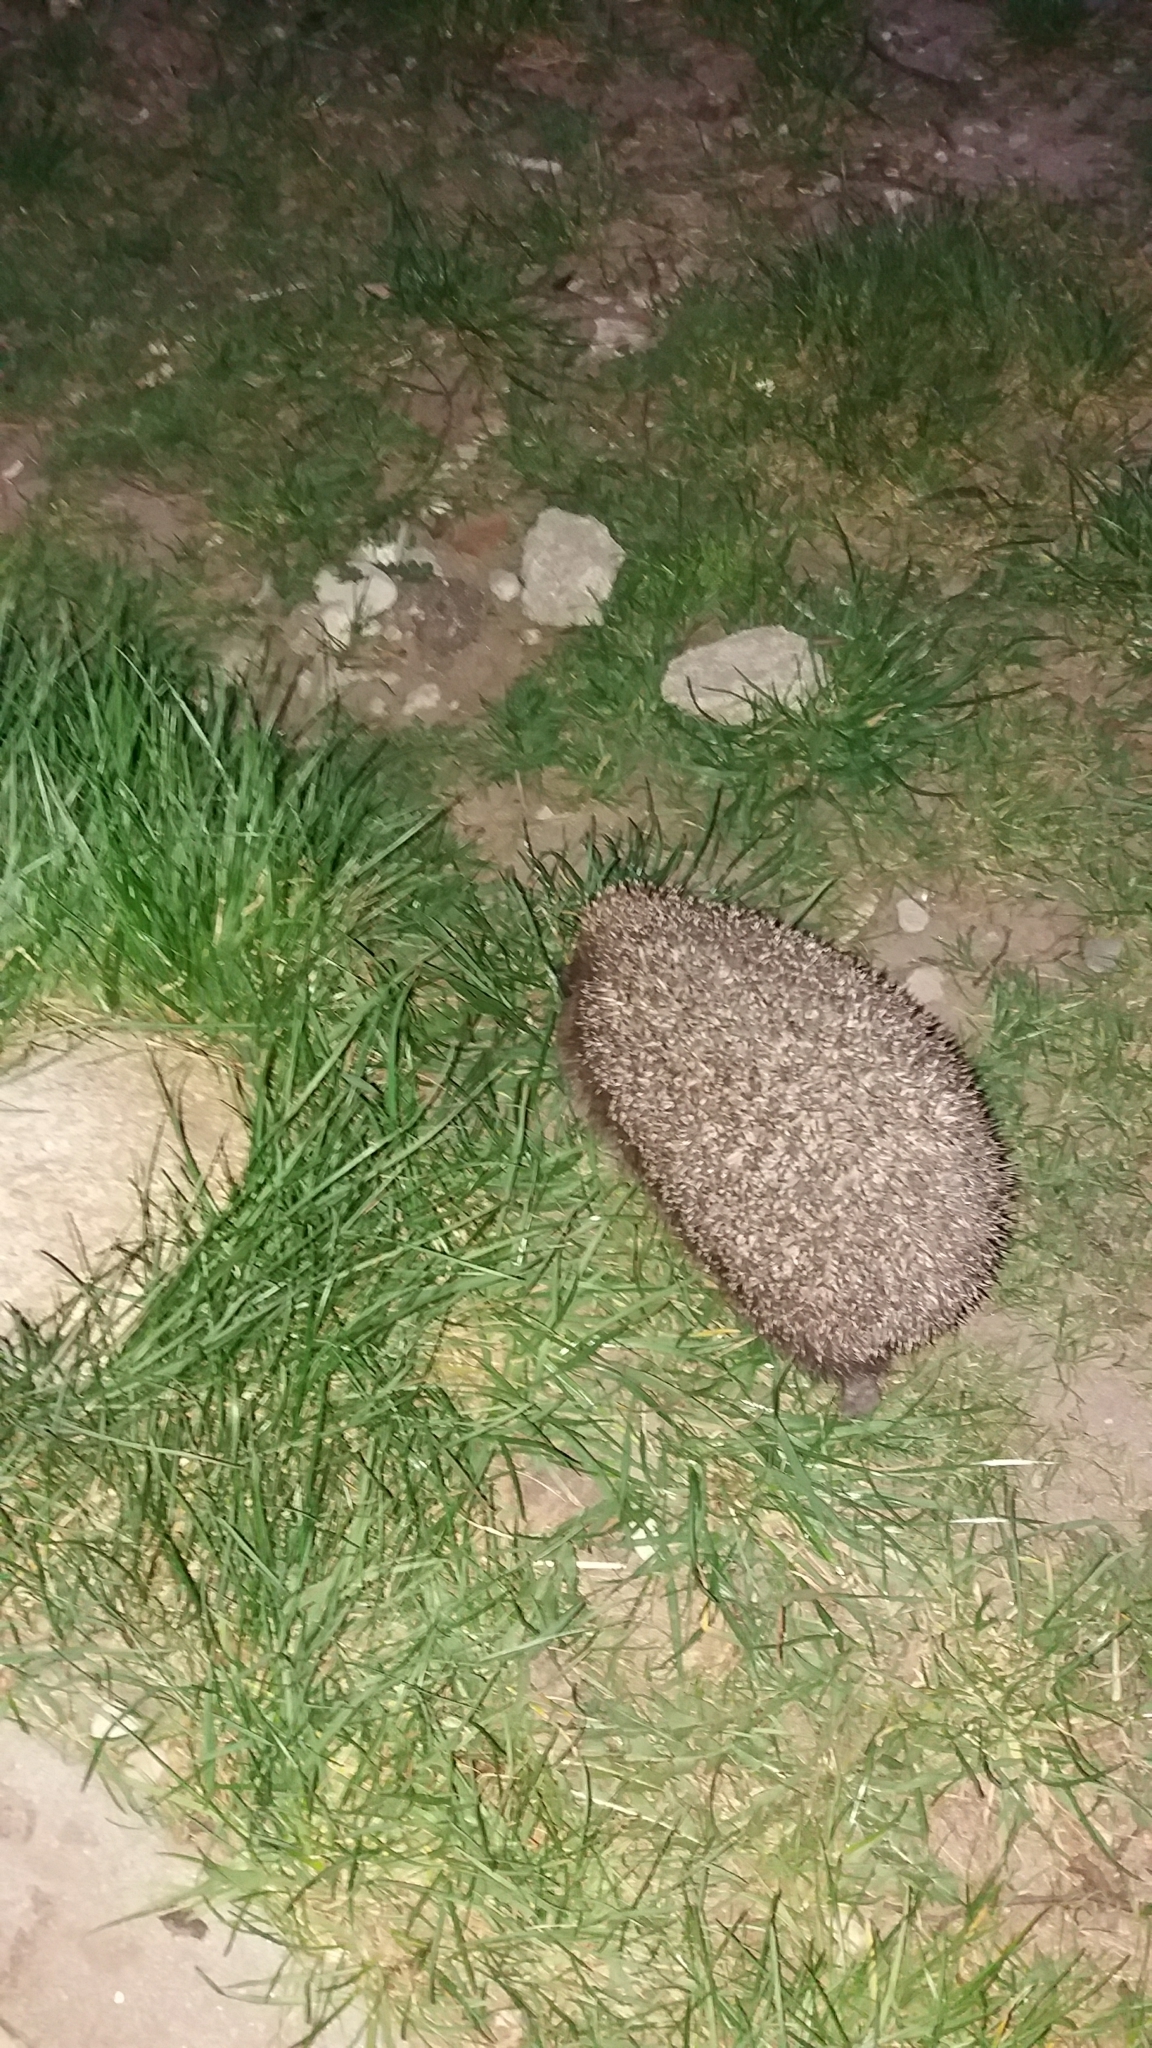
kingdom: Animalia
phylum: Chordata
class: Mammalia
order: Erinaceomorpha
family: Erinaceidae
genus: Erinaceus
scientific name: Erinaceus roumanicus
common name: Northern white-breasted hedgehog
